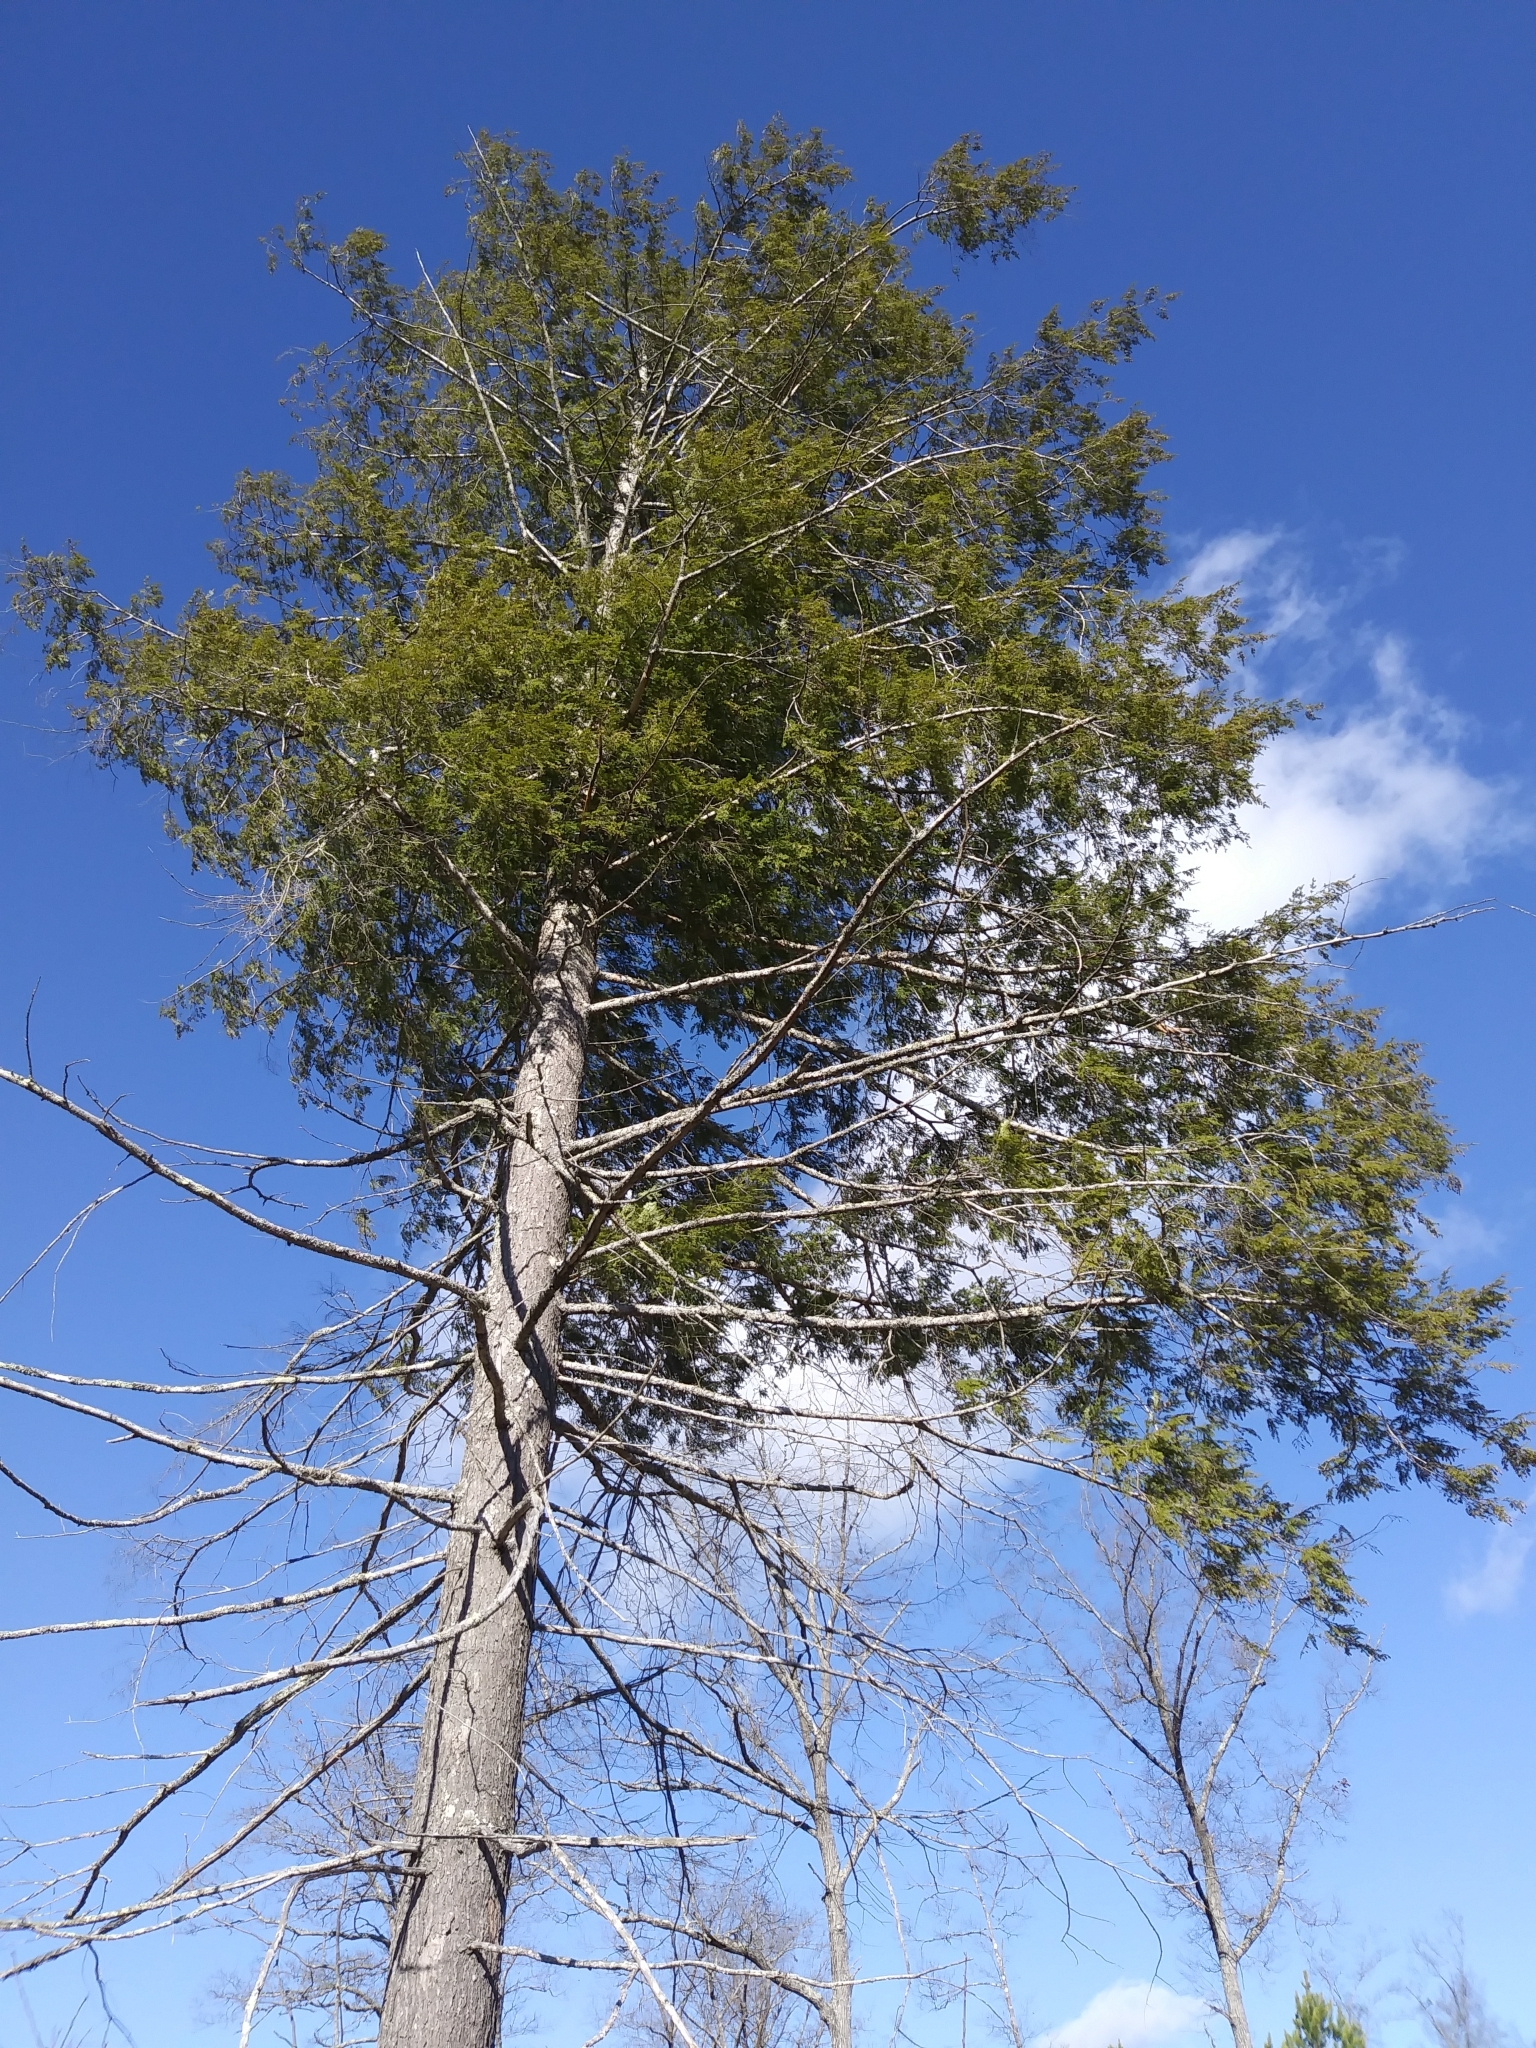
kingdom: Plantae
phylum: Tracheophyta
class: Pinopsida
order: Pinales
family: Pinaceae
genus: Tsuga
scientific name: Tsuga canadensis
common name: Eastern hemlock
